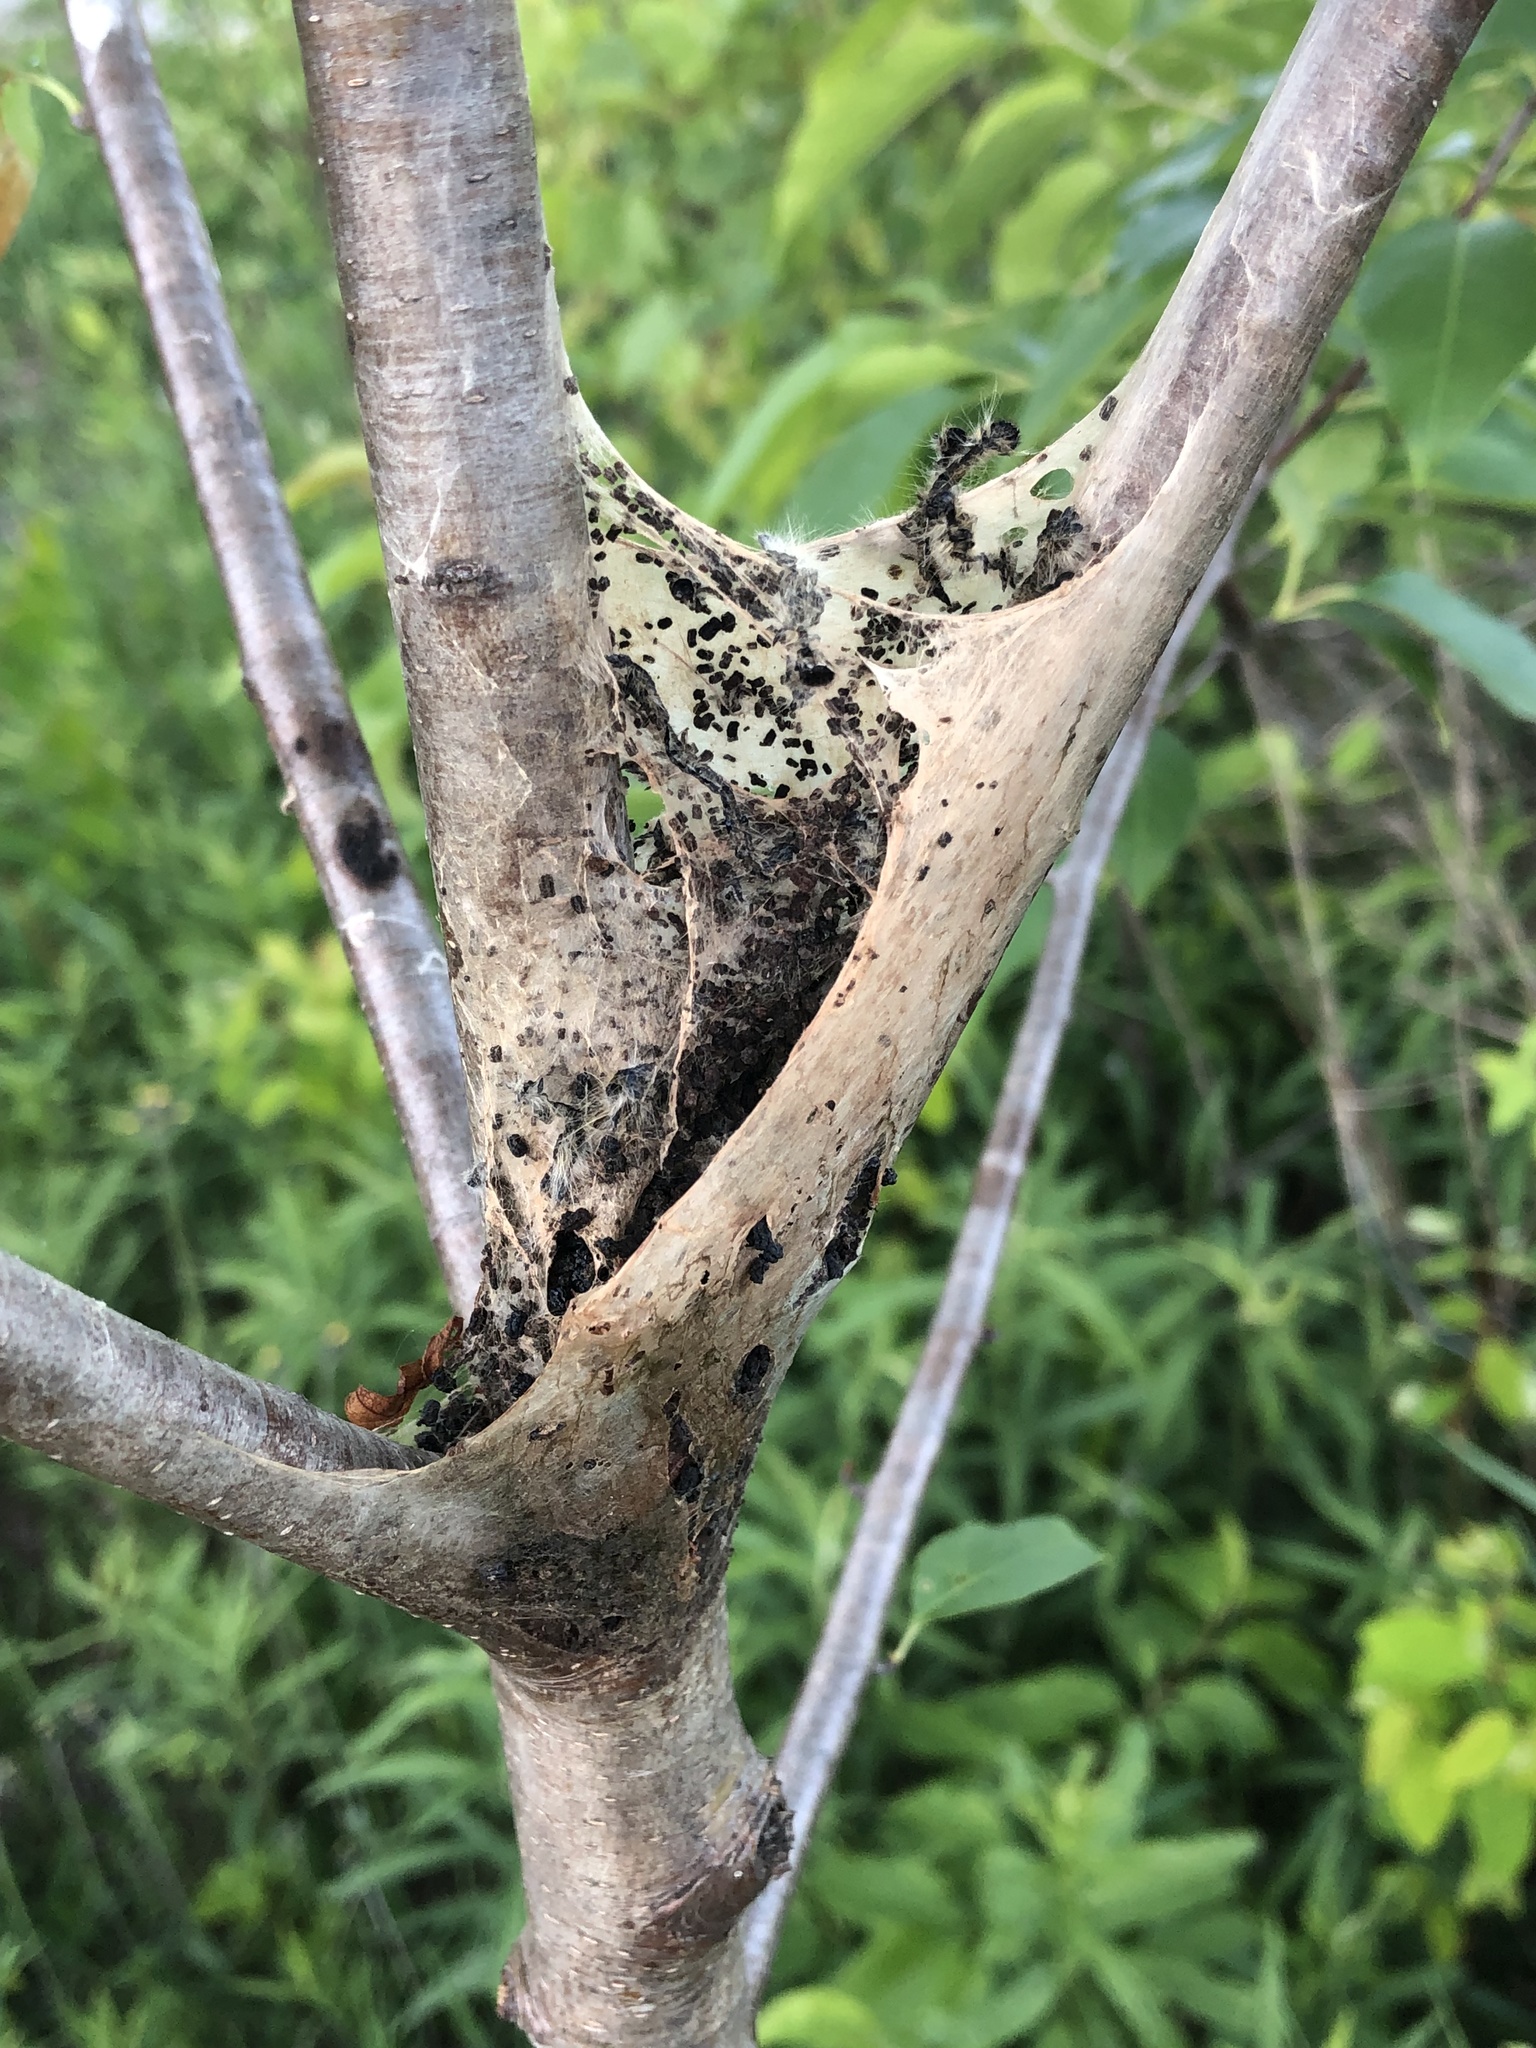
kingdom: Animalia
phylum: Arthropoda
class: Insecta
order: Lepidoptera
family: Lasiocampidae
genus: Malacosoma
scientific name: Malacosoma americana
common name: Eastern tent caterpillar moth
